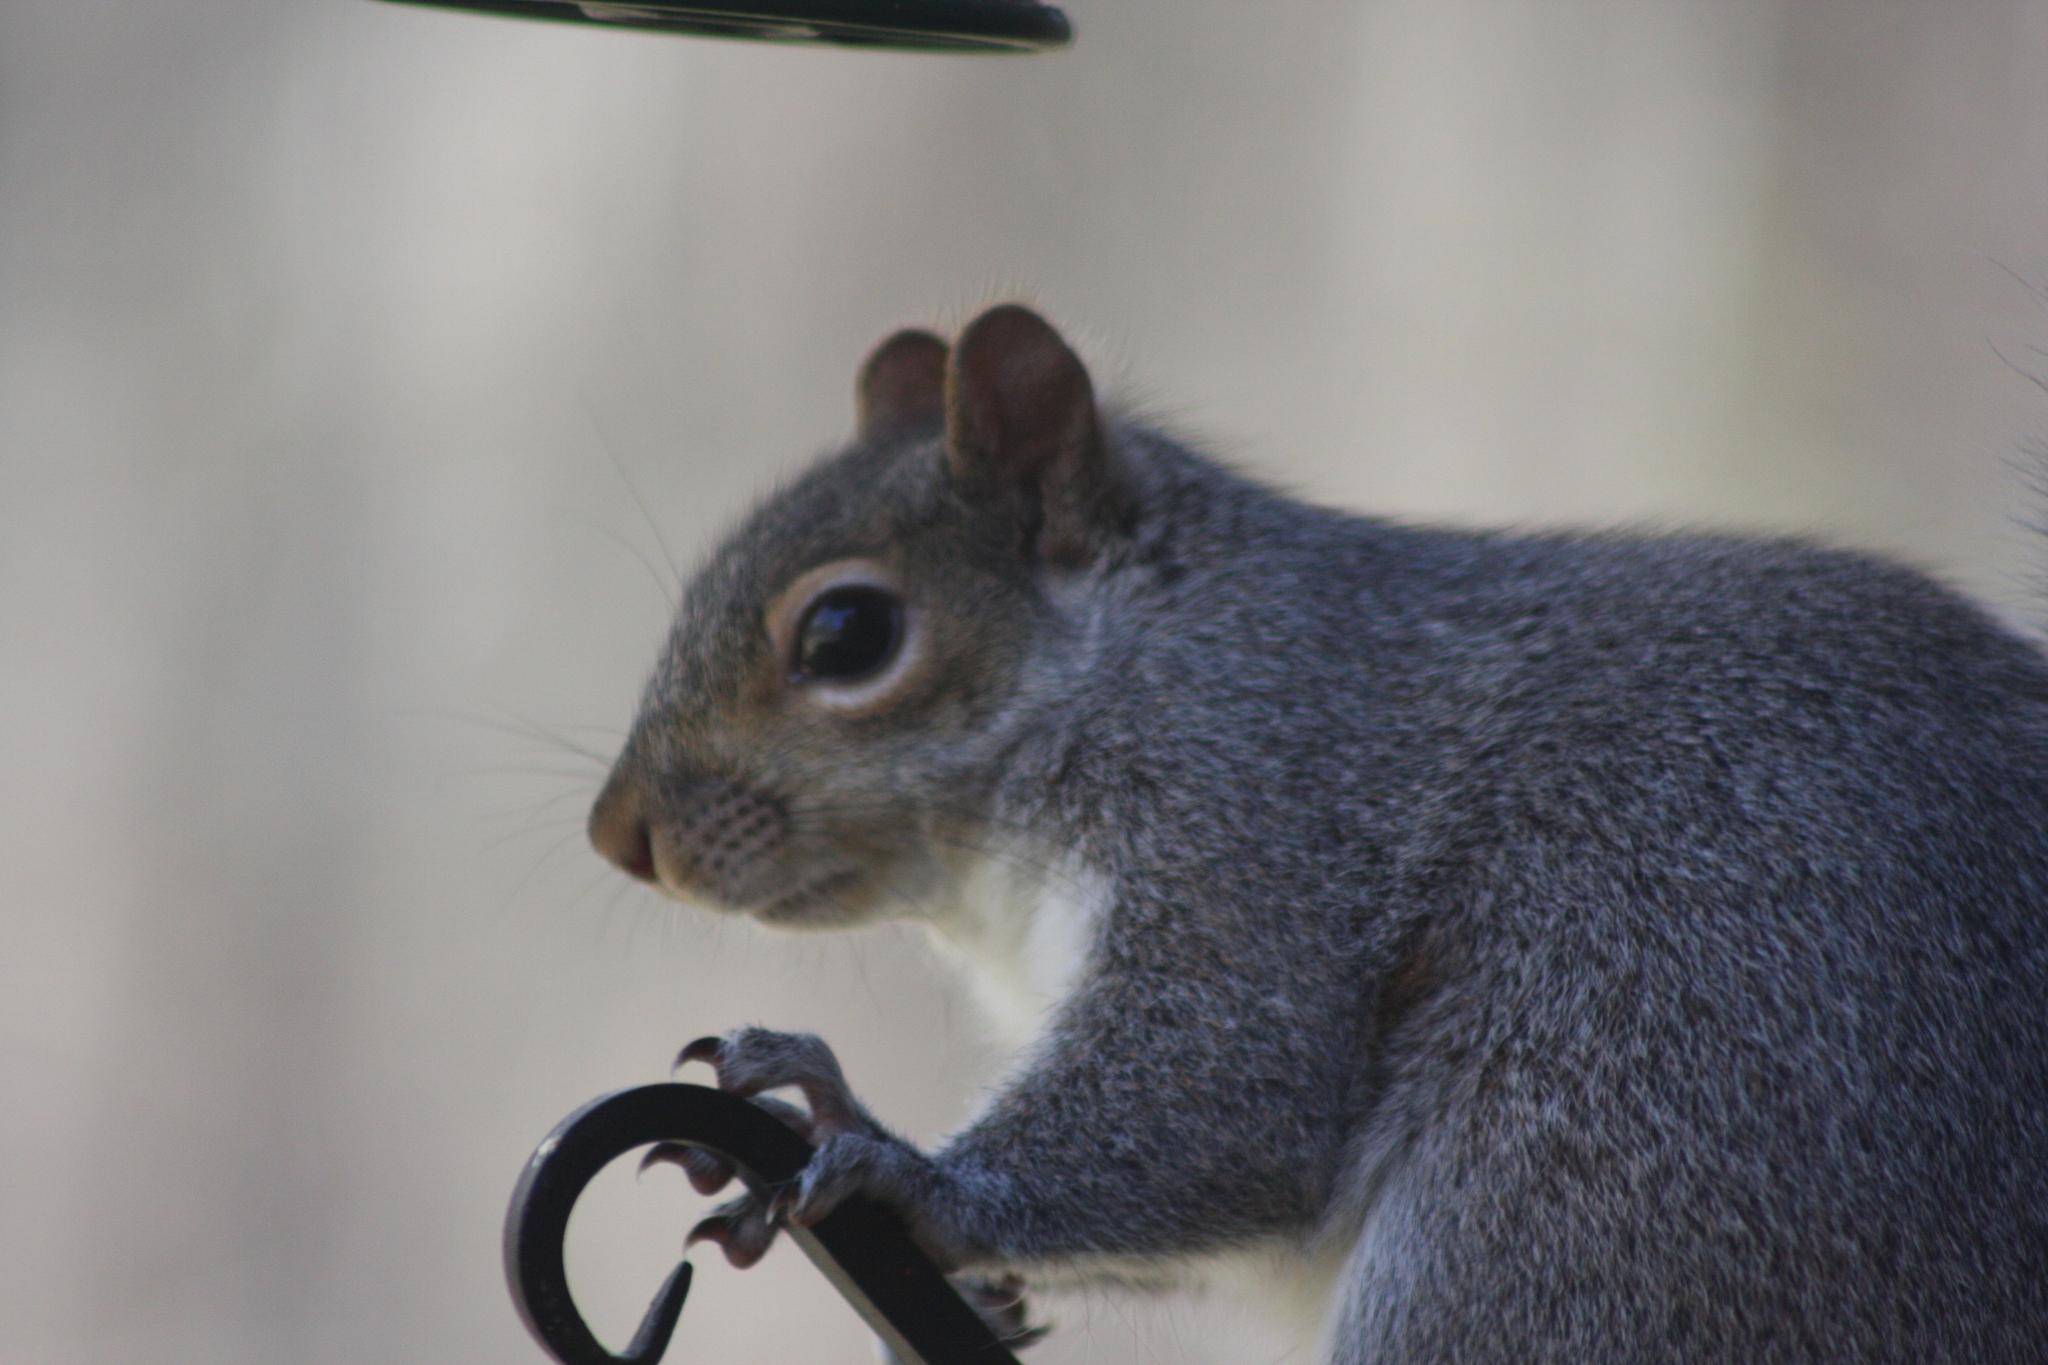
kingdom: Animalia
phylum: Chordata
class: Mammalia
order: Rodentia
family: Sciuridae
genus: Sciurus
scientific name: Sciurus carolinensis
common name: Eastern gray squirrel
